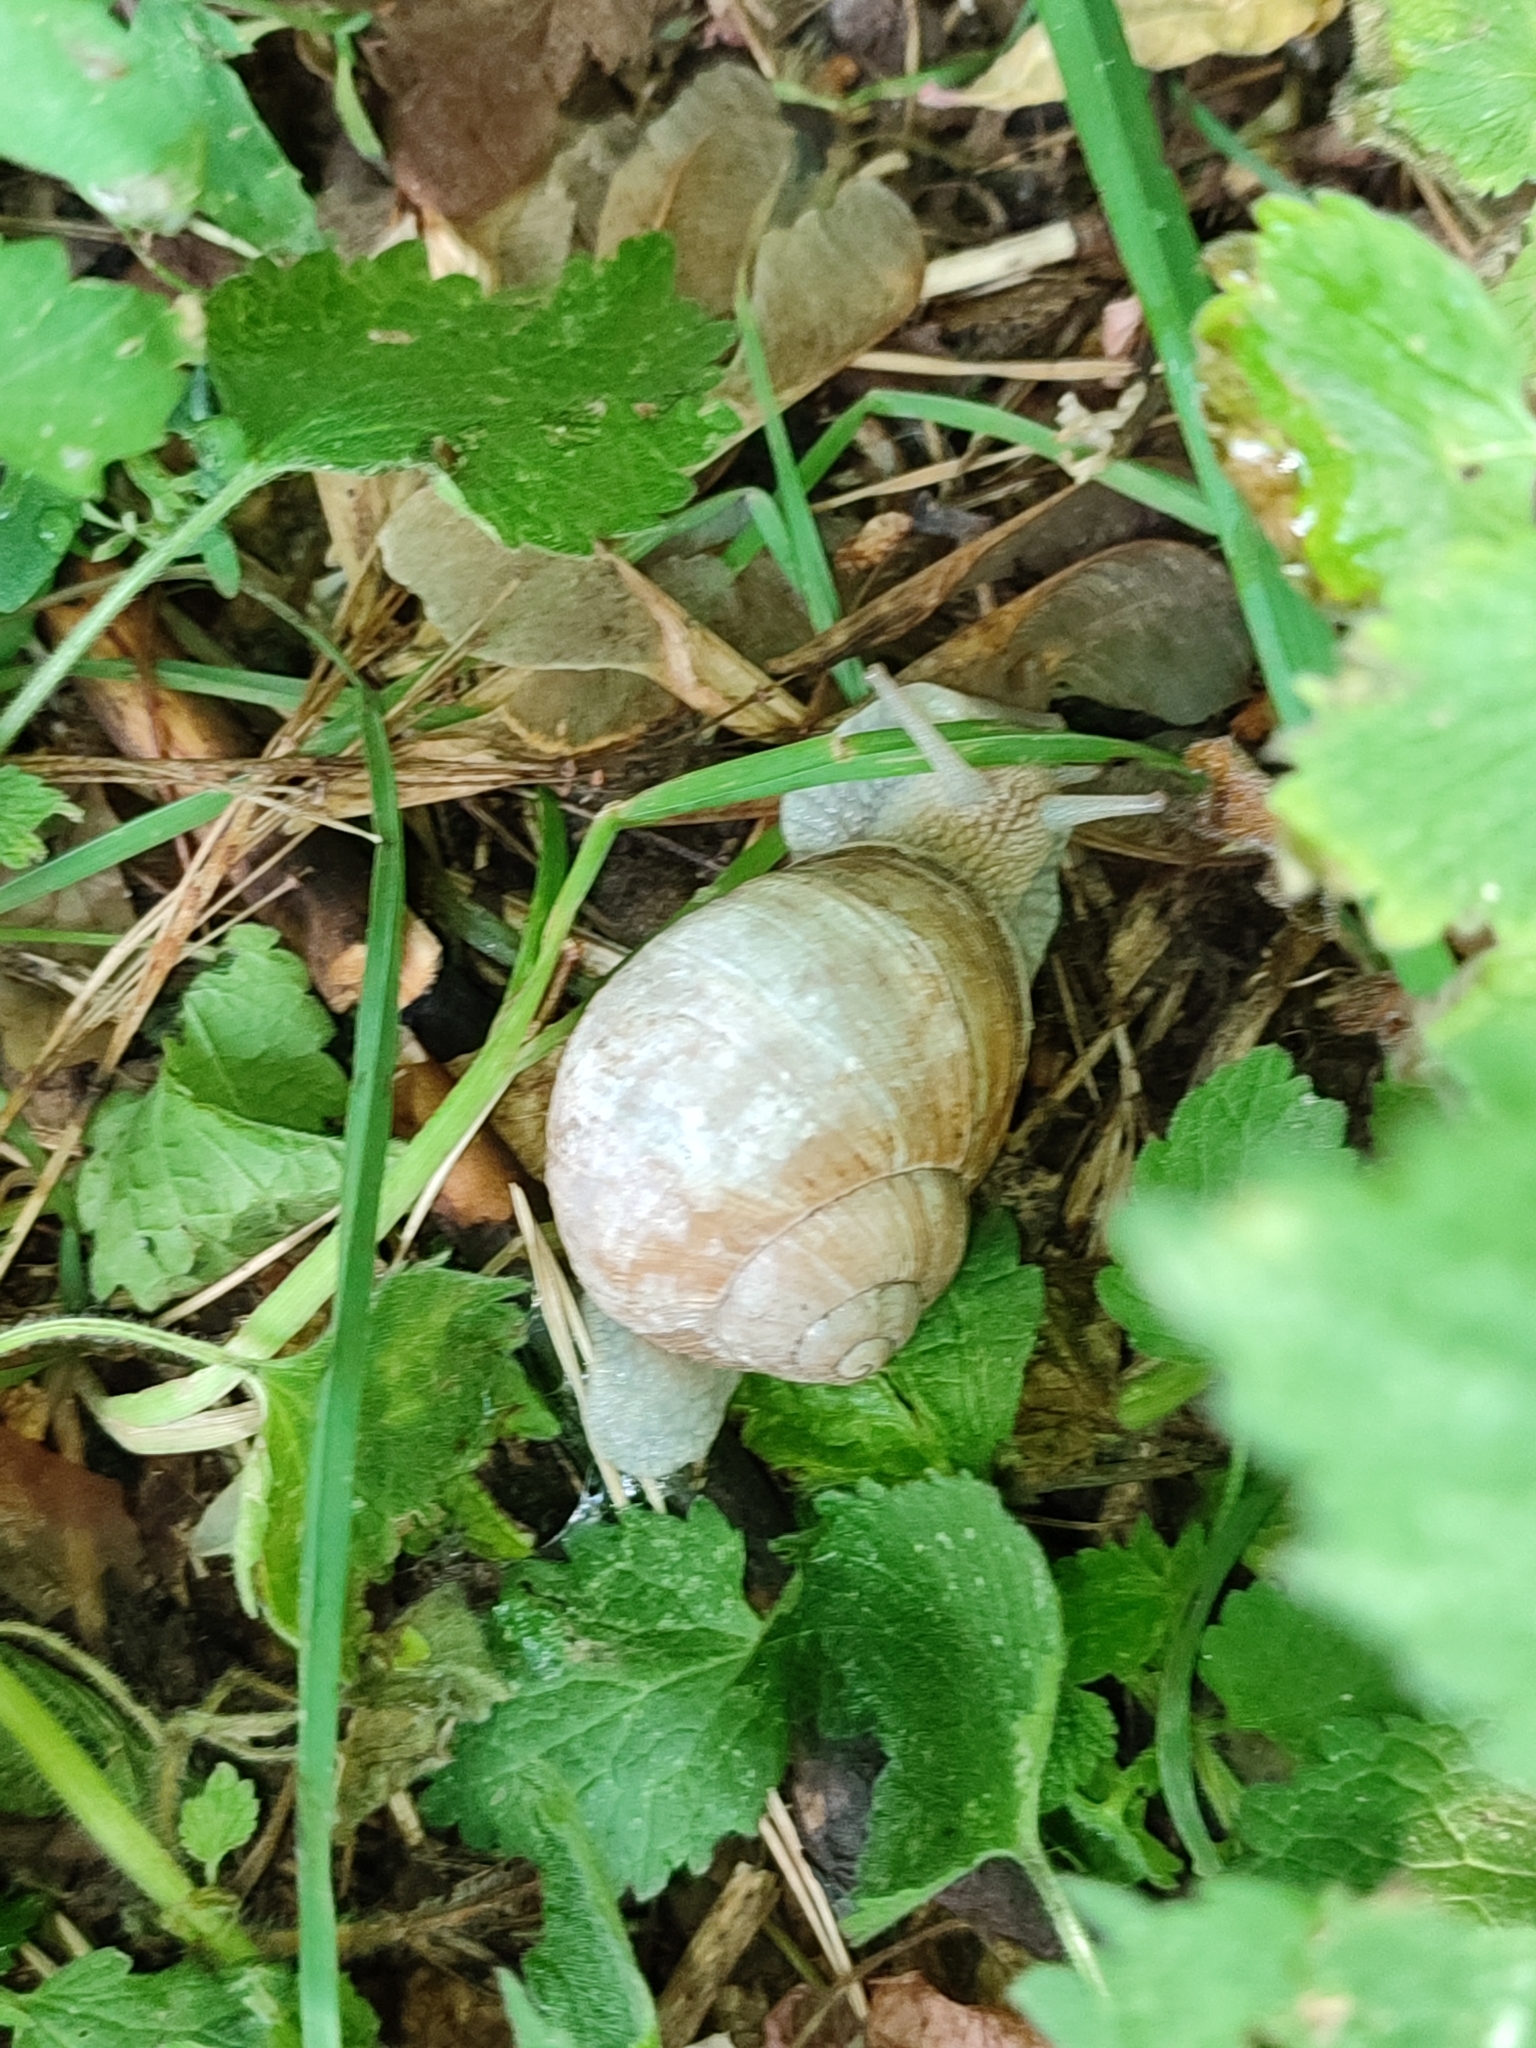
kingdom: Animalia
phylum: Mollusca
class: Gastropoda
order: Stylommatophora
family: Helicidae
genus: Helix
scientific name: Helix pomatia
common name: Roman snail
